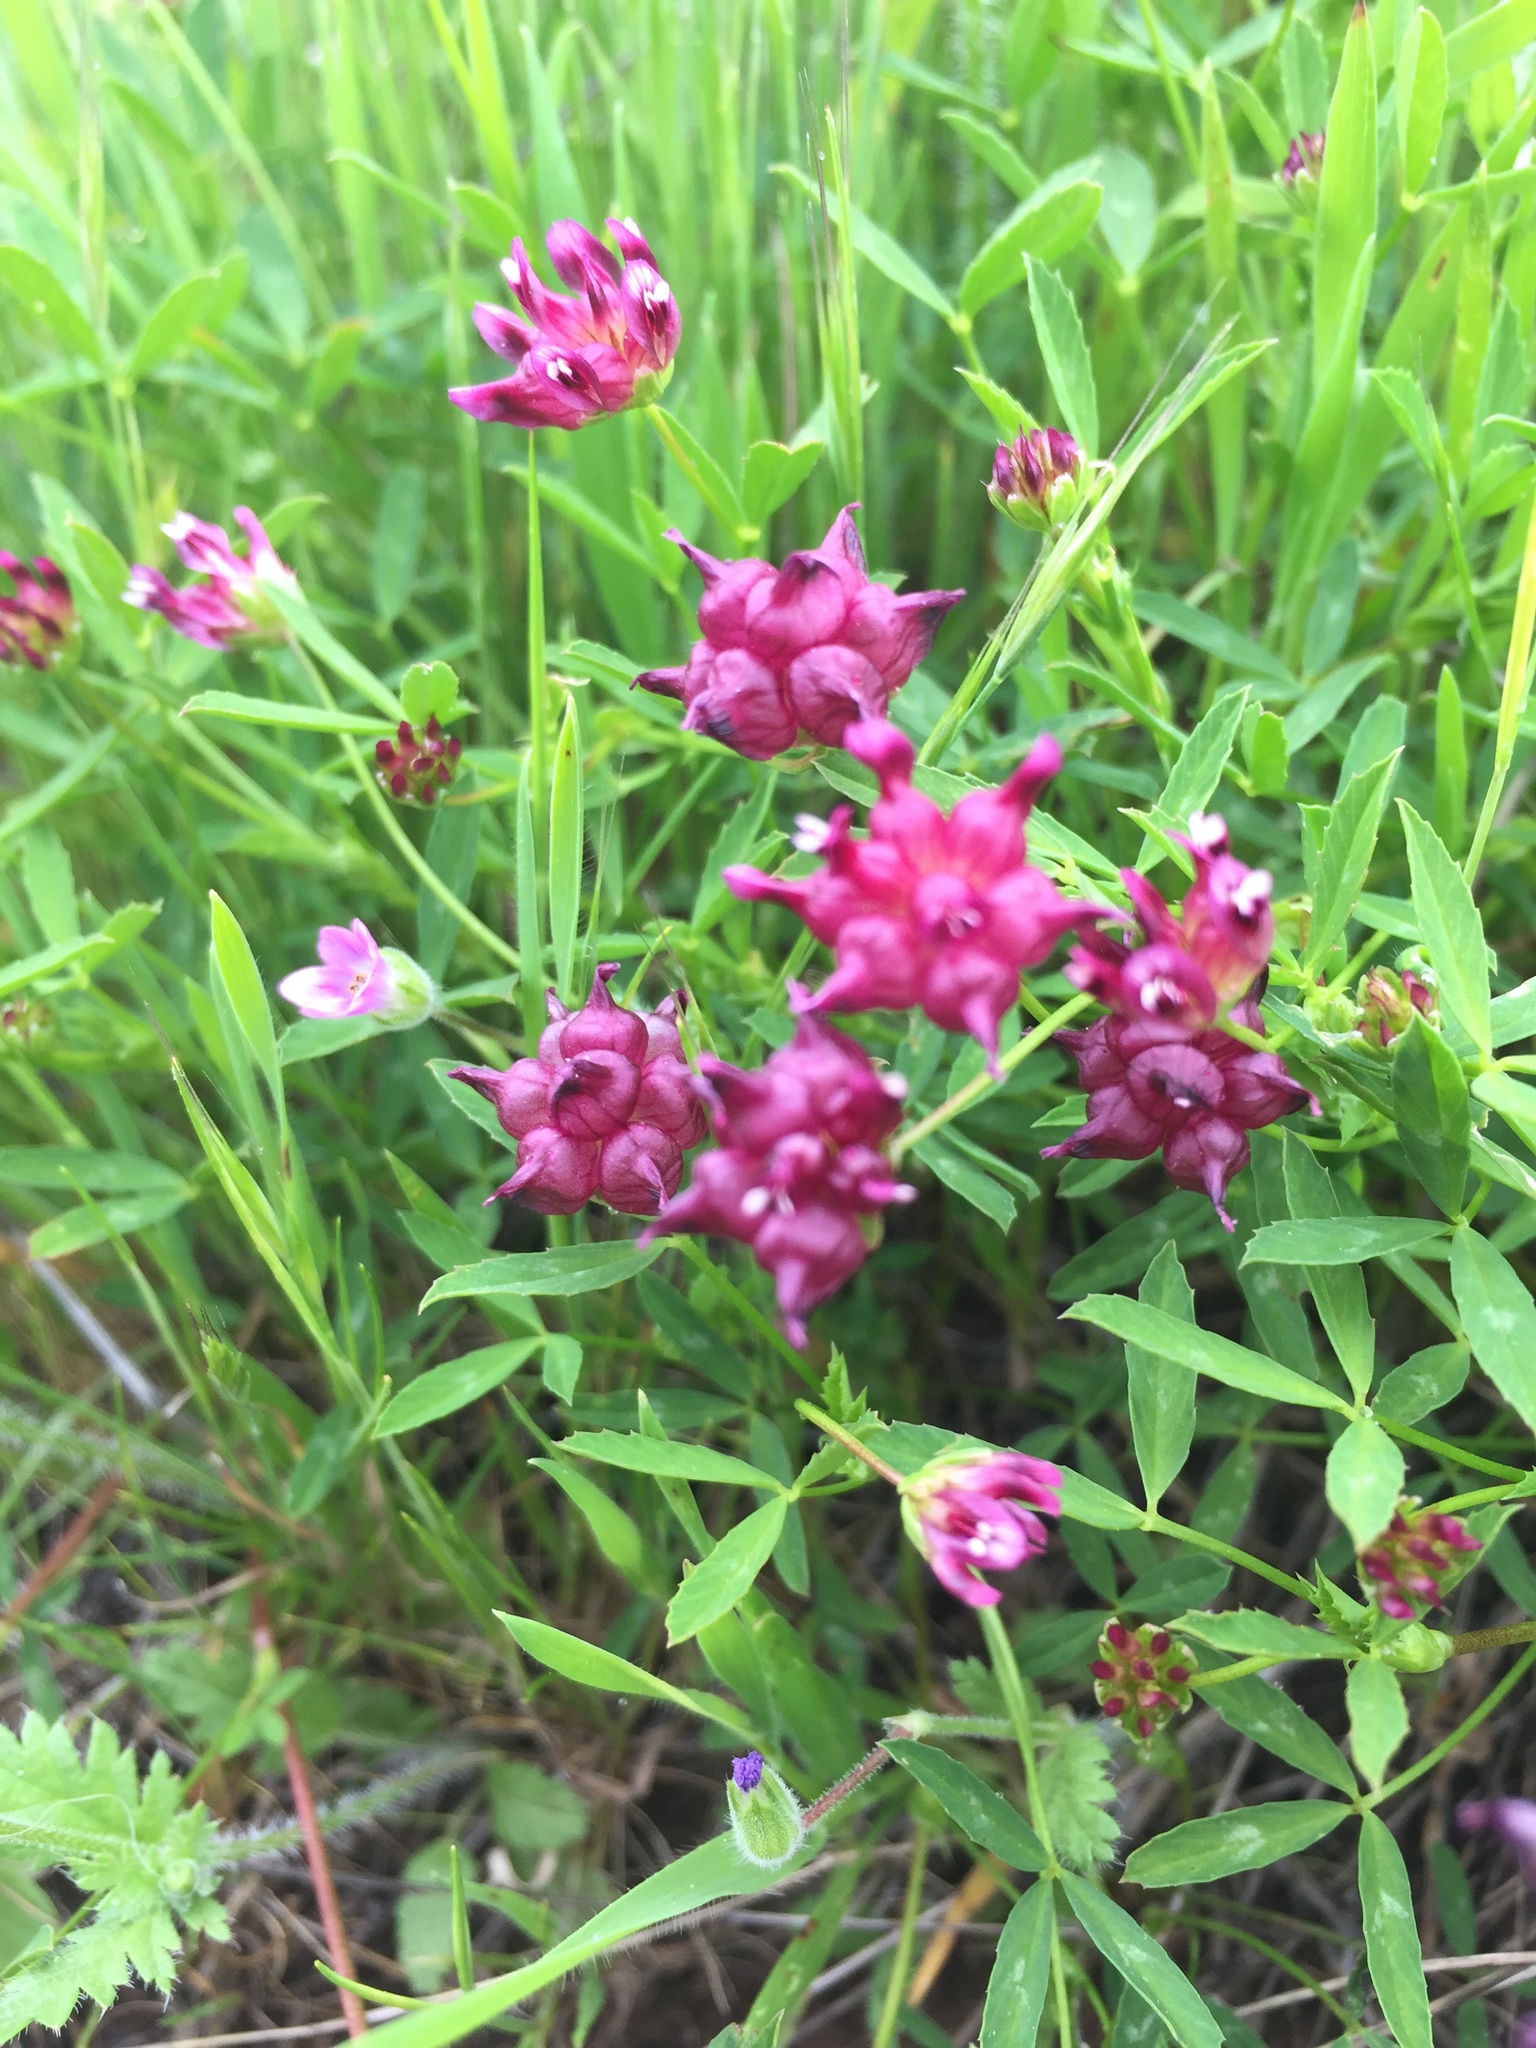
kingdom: Plantae
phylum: Tracheophyta
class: Magnoliopsida
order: Fabales
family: Fabaceae
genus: Trifolium
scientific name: Trifolium depauperatum
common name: Poverty clover
